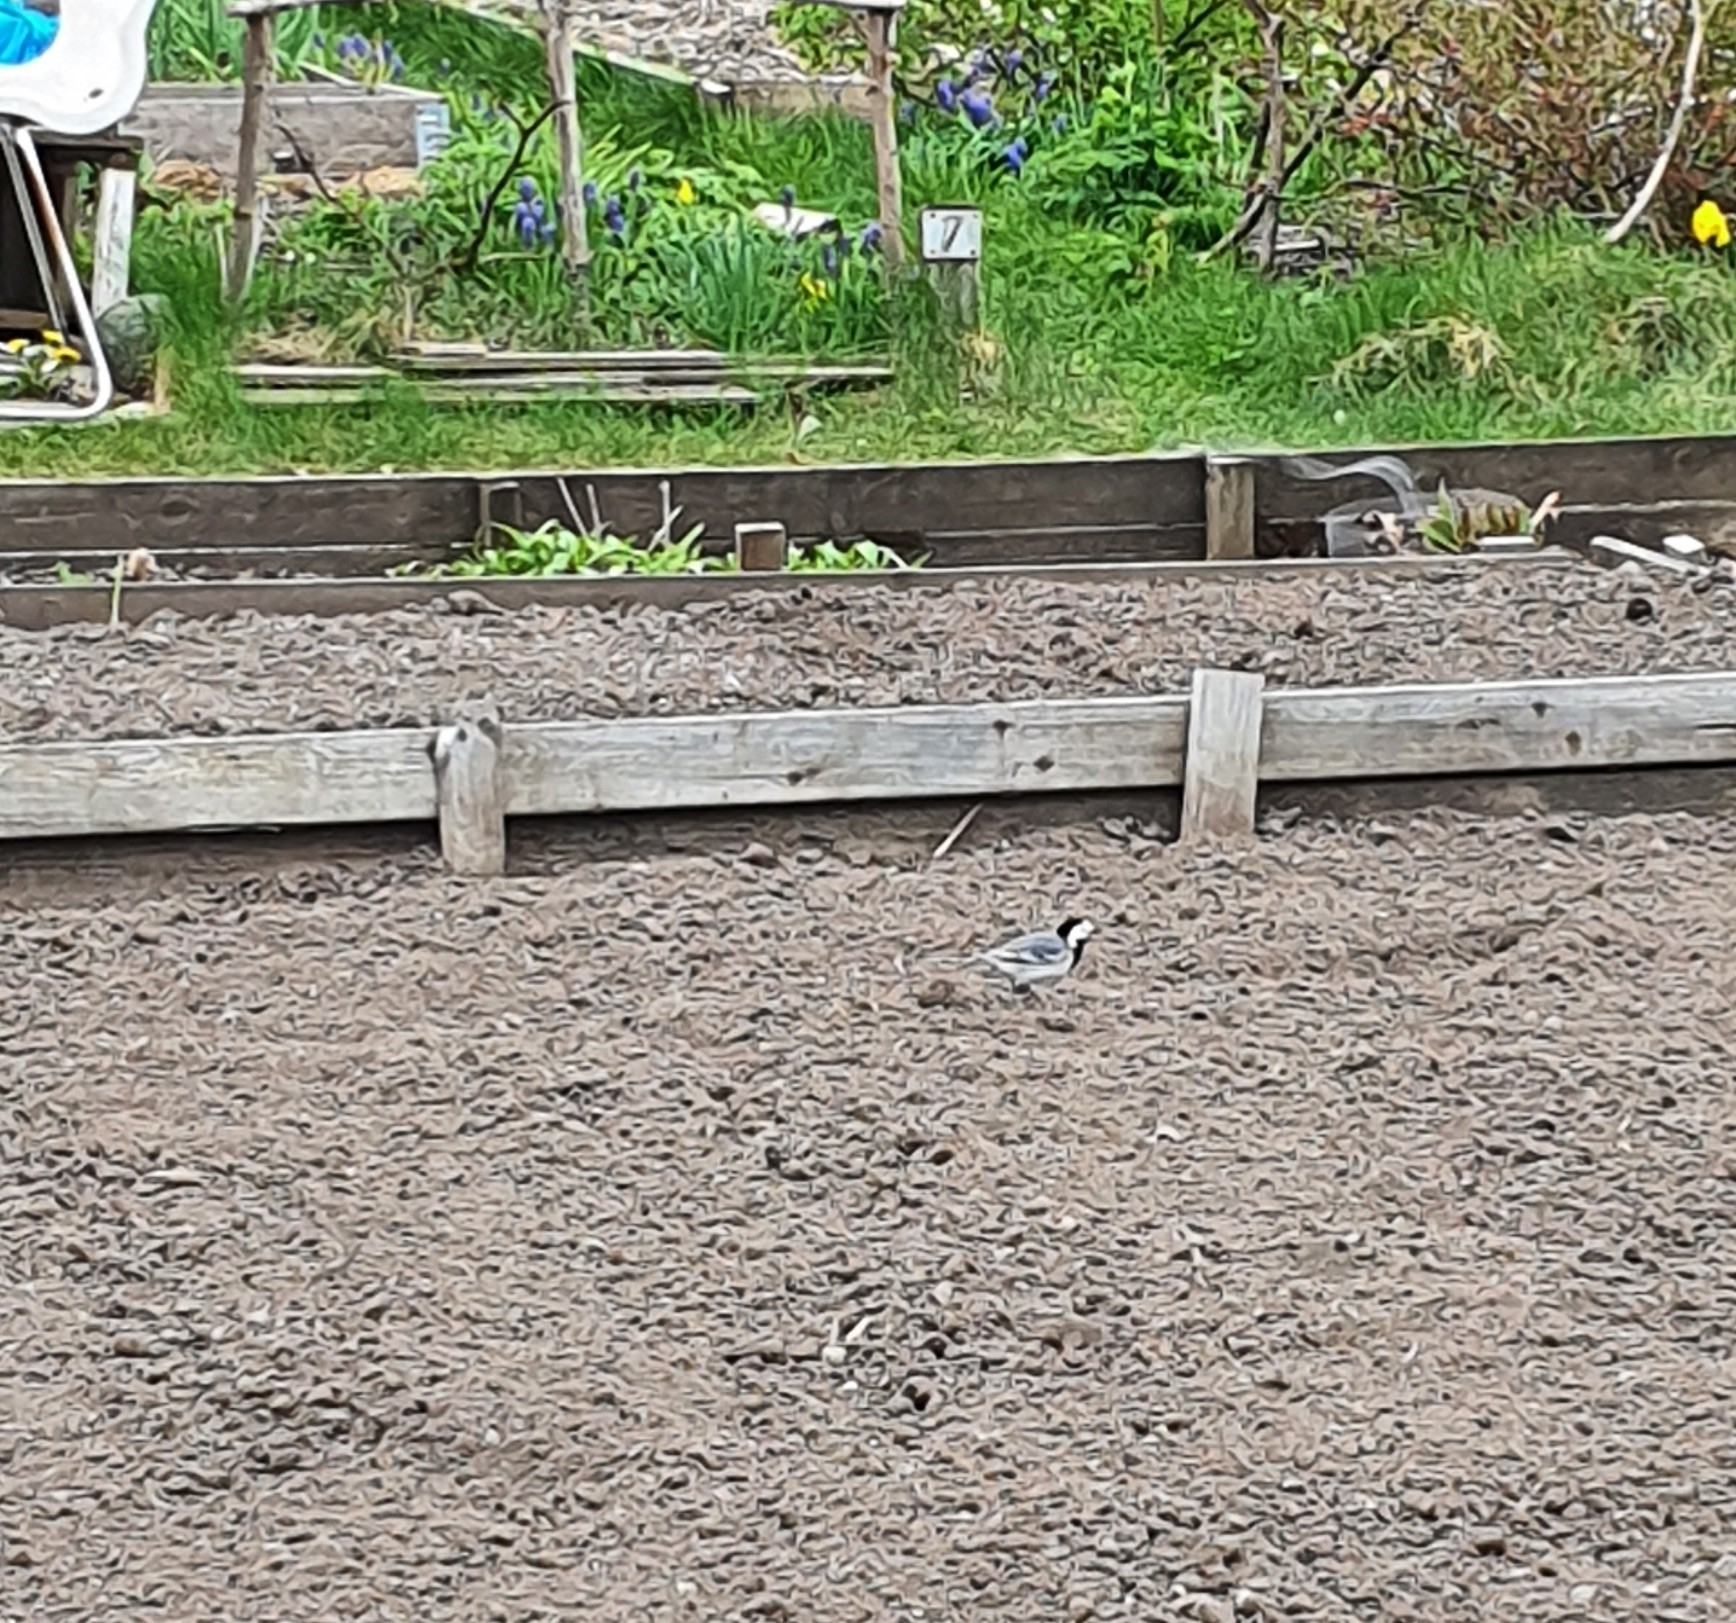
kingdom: Animalia
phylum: Chordata
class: Aves
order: Passeriformes
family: Motacillidae
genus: Motacilla
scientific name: Motacilla alba
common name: White wagtail
